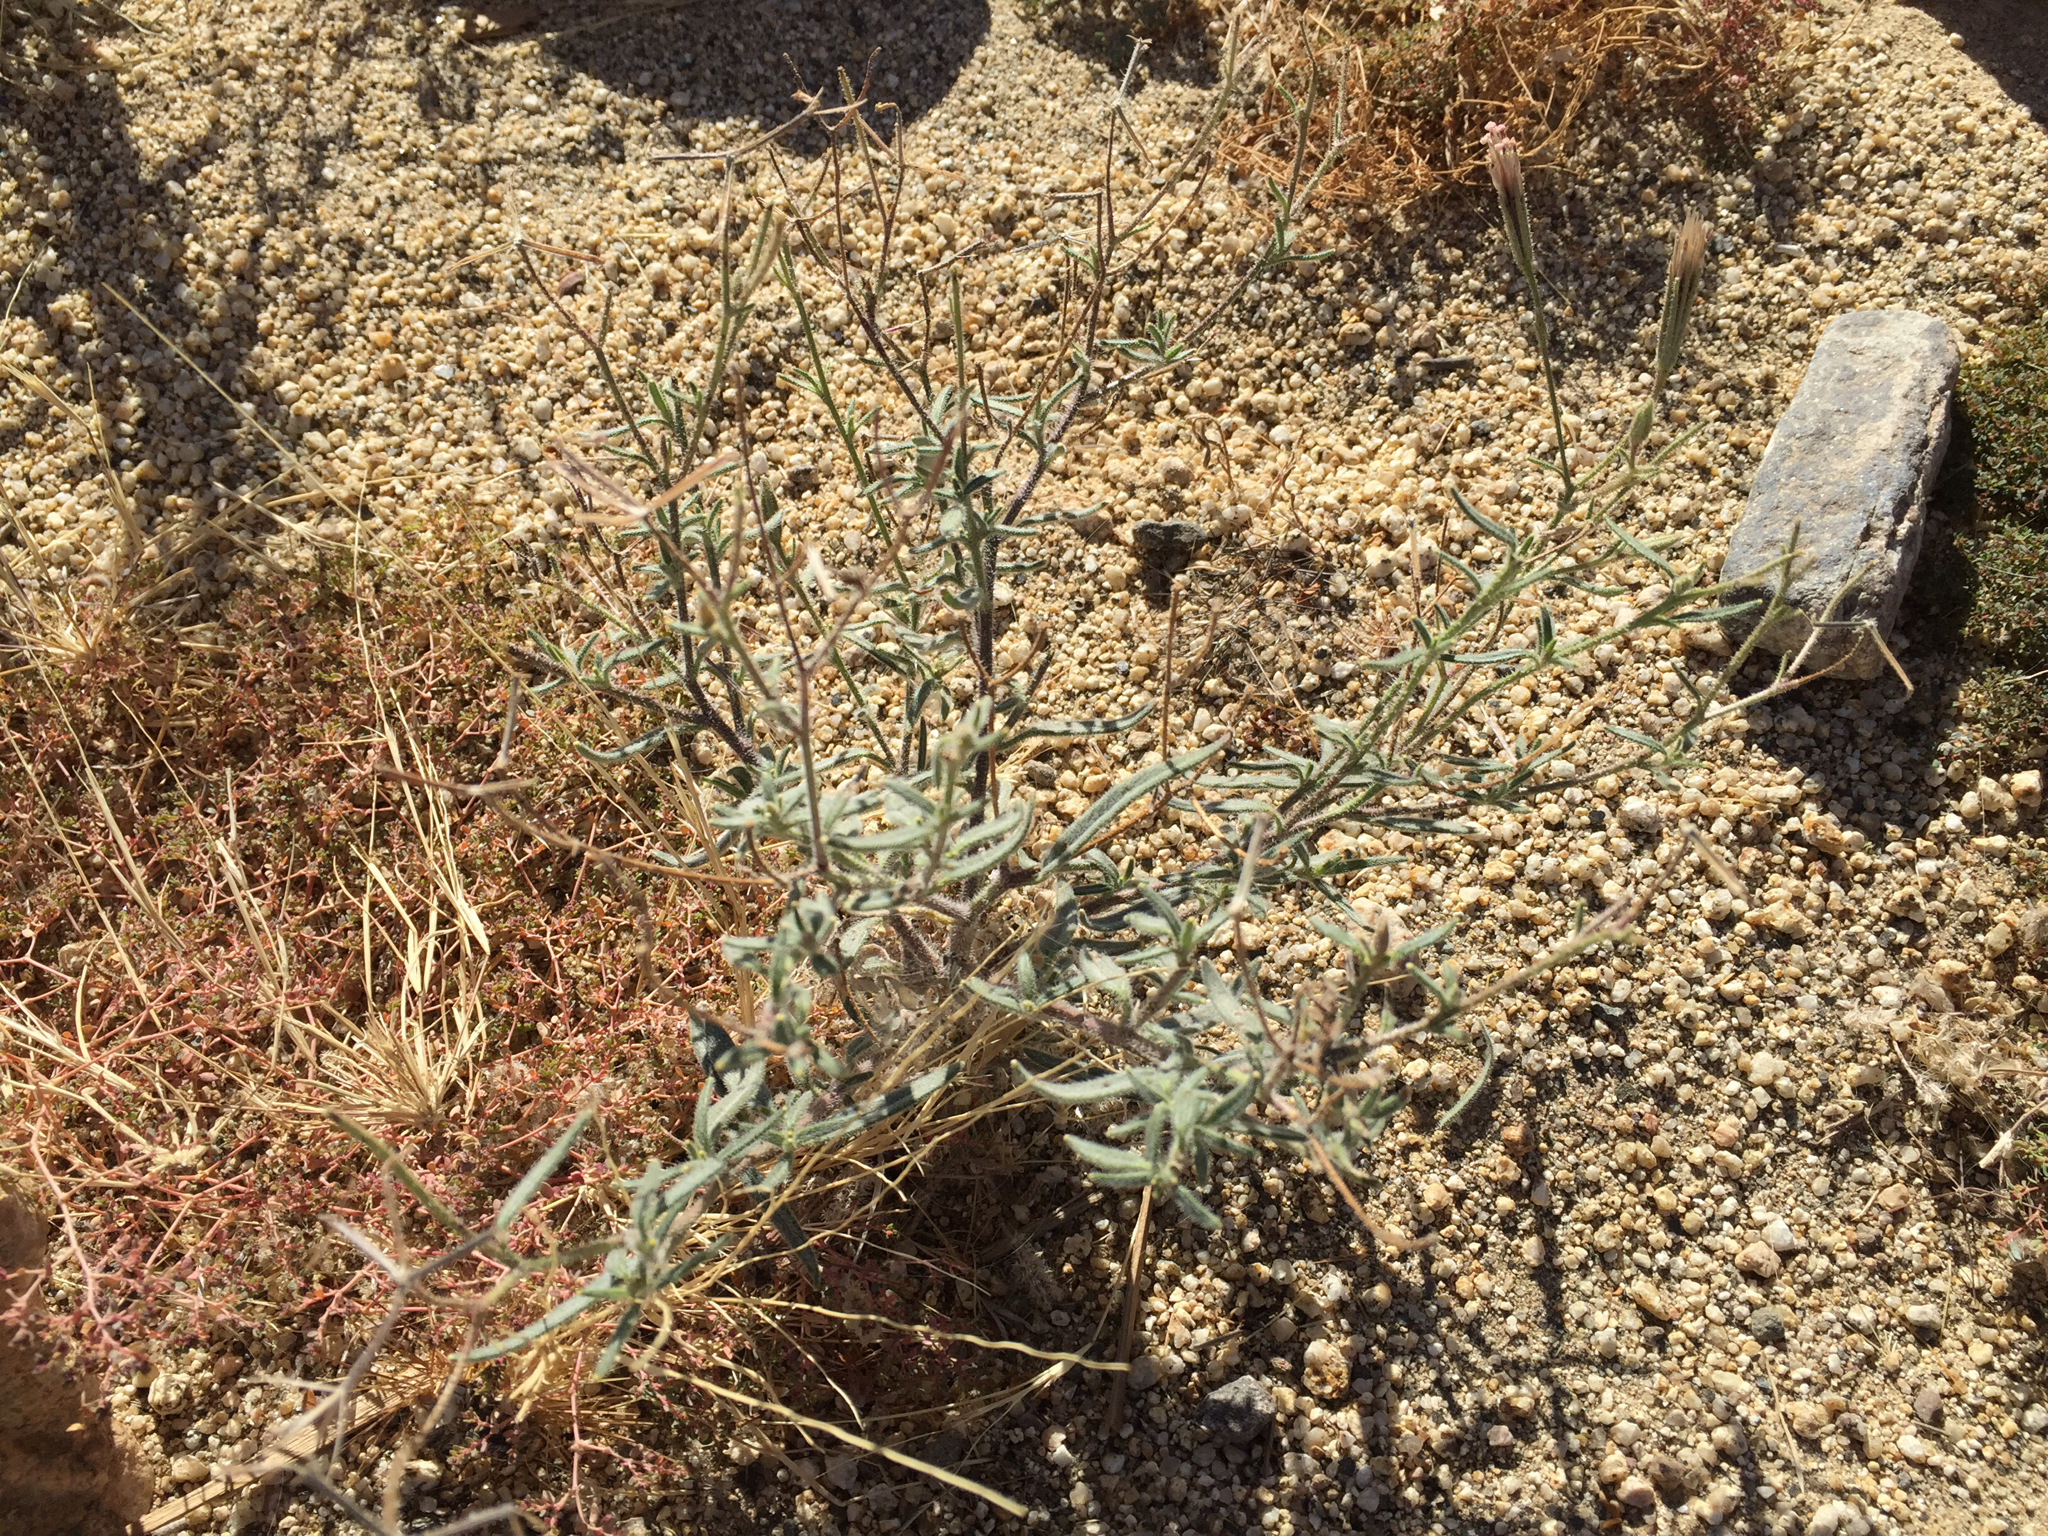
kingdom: Plantae
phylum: Tracheophyta
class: Magnoliopsida
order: Asterales
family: Asteraceae
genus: Palafoxia
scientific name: Palafoxia arida
